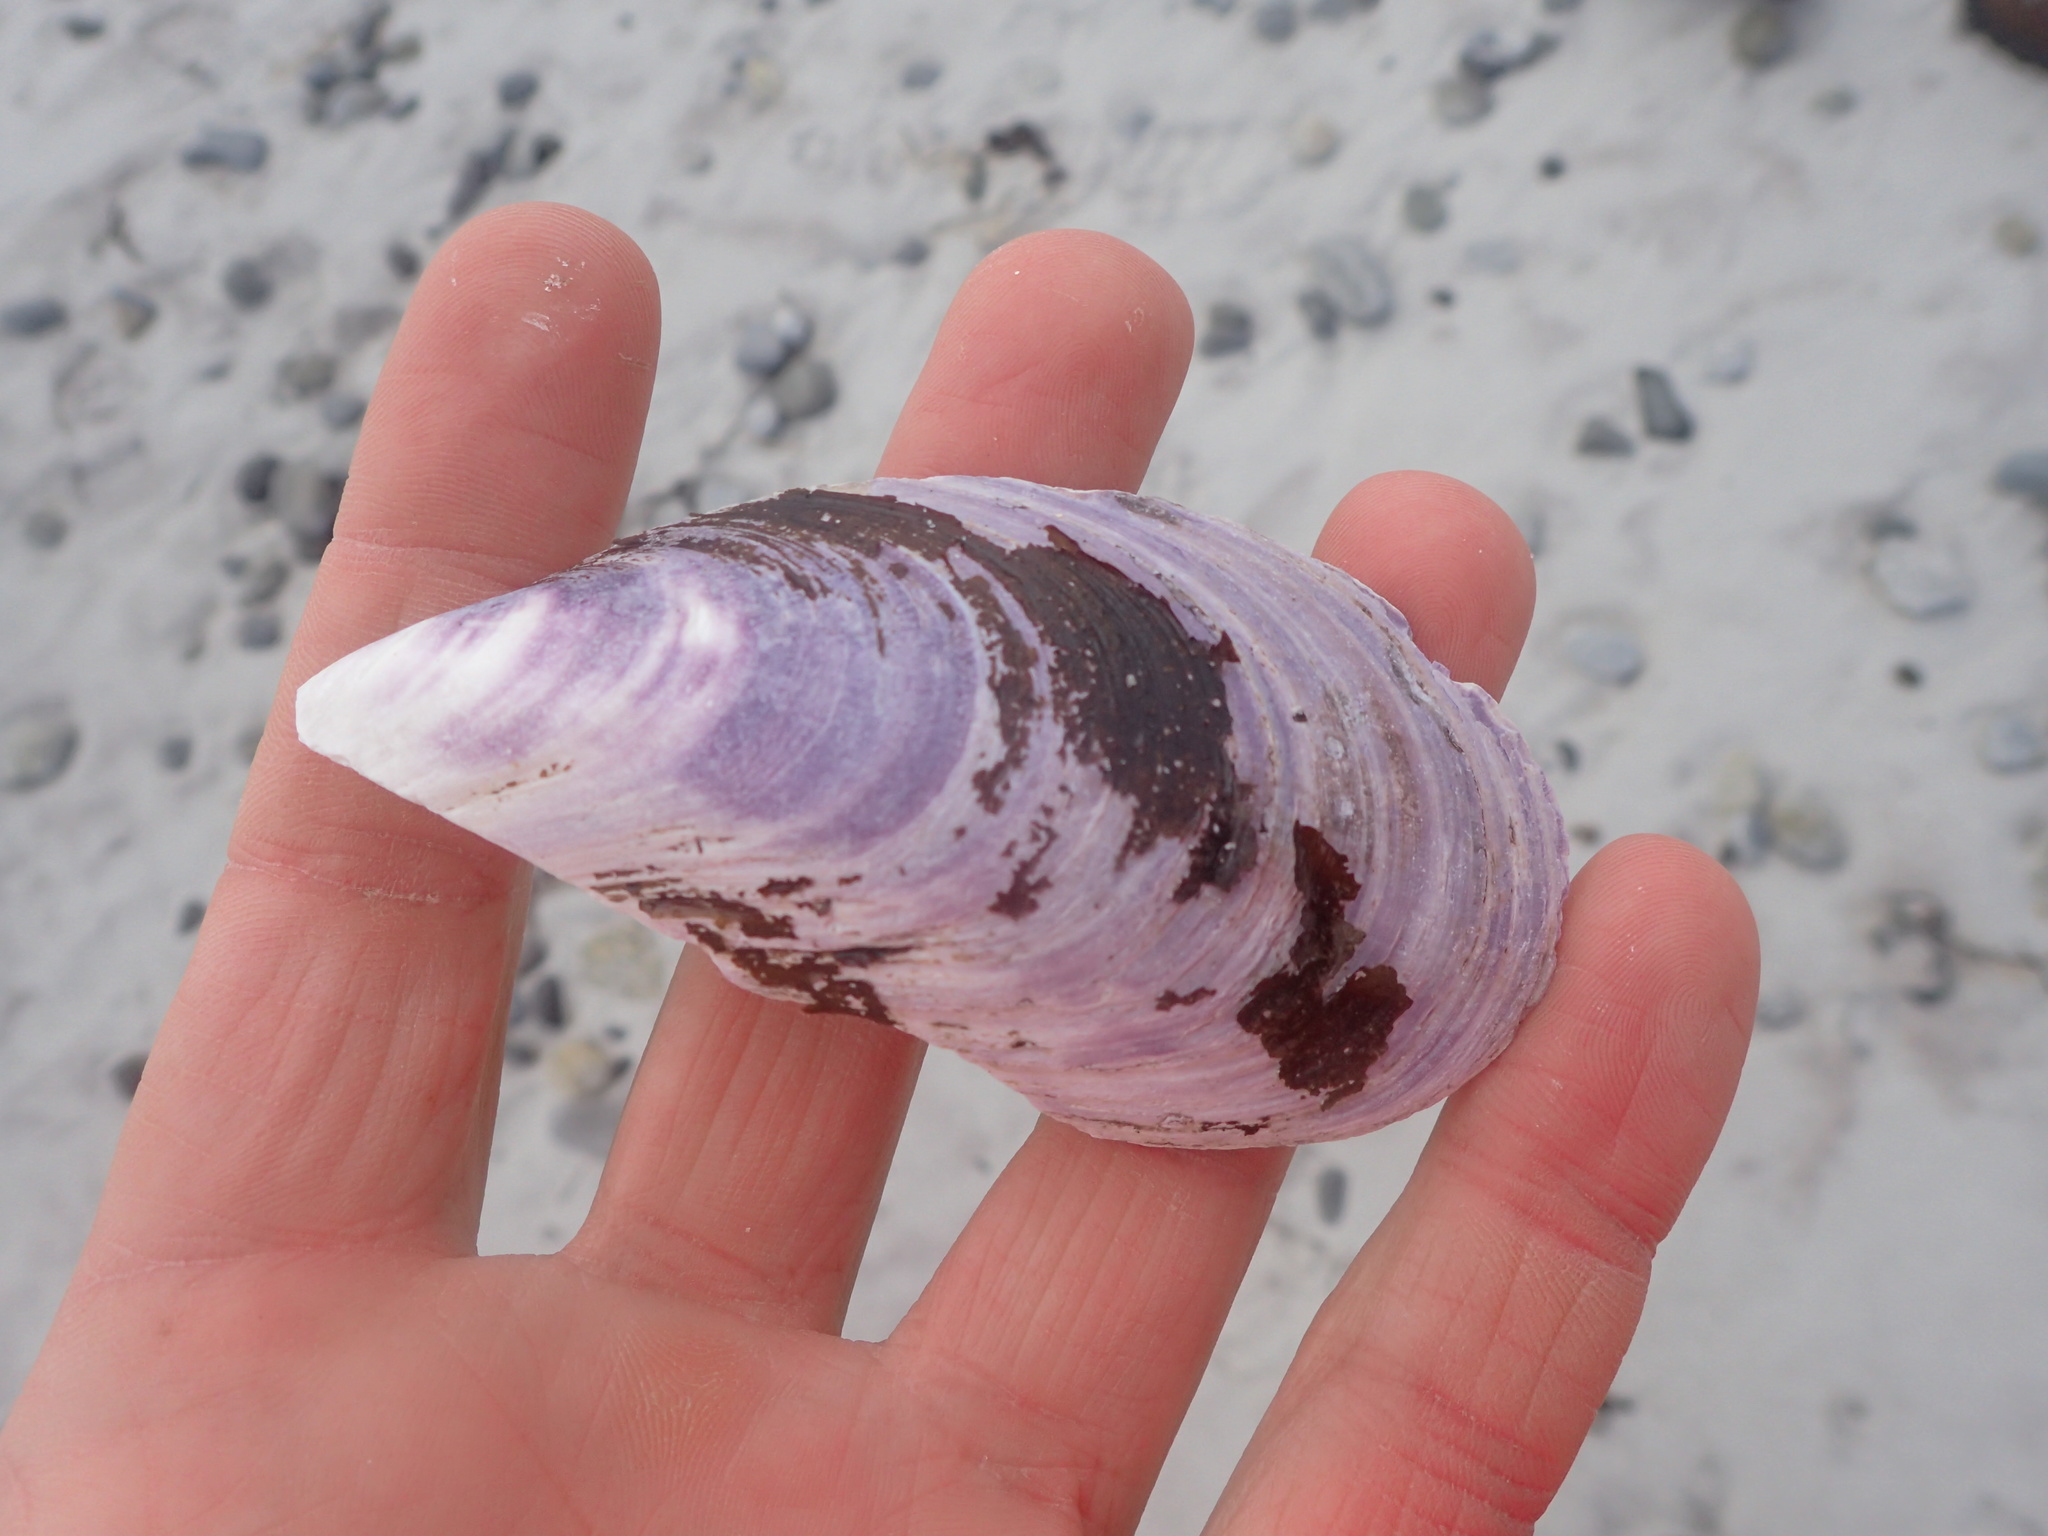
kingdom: Animalia
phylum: Mollusca
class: Bivalvia
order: Mytilida
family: Mytilidae
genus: Mytilus
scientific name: Mytilus edulis
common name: Blue mussel
